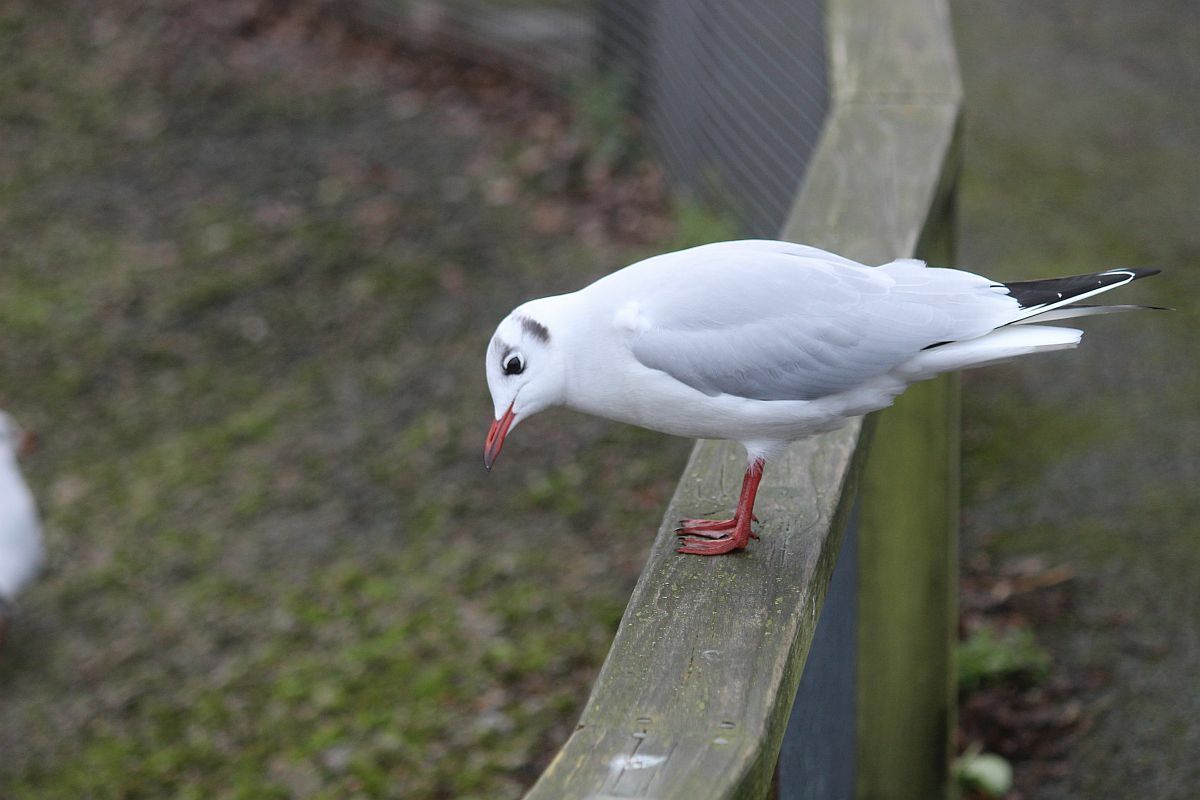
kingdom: Animalia
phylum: Chordata
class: Aves
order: Charadriiformes
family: Laridae
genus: Chroicocephalus
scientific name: Chroicocephalus ridibundus
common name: Black-headed gull
